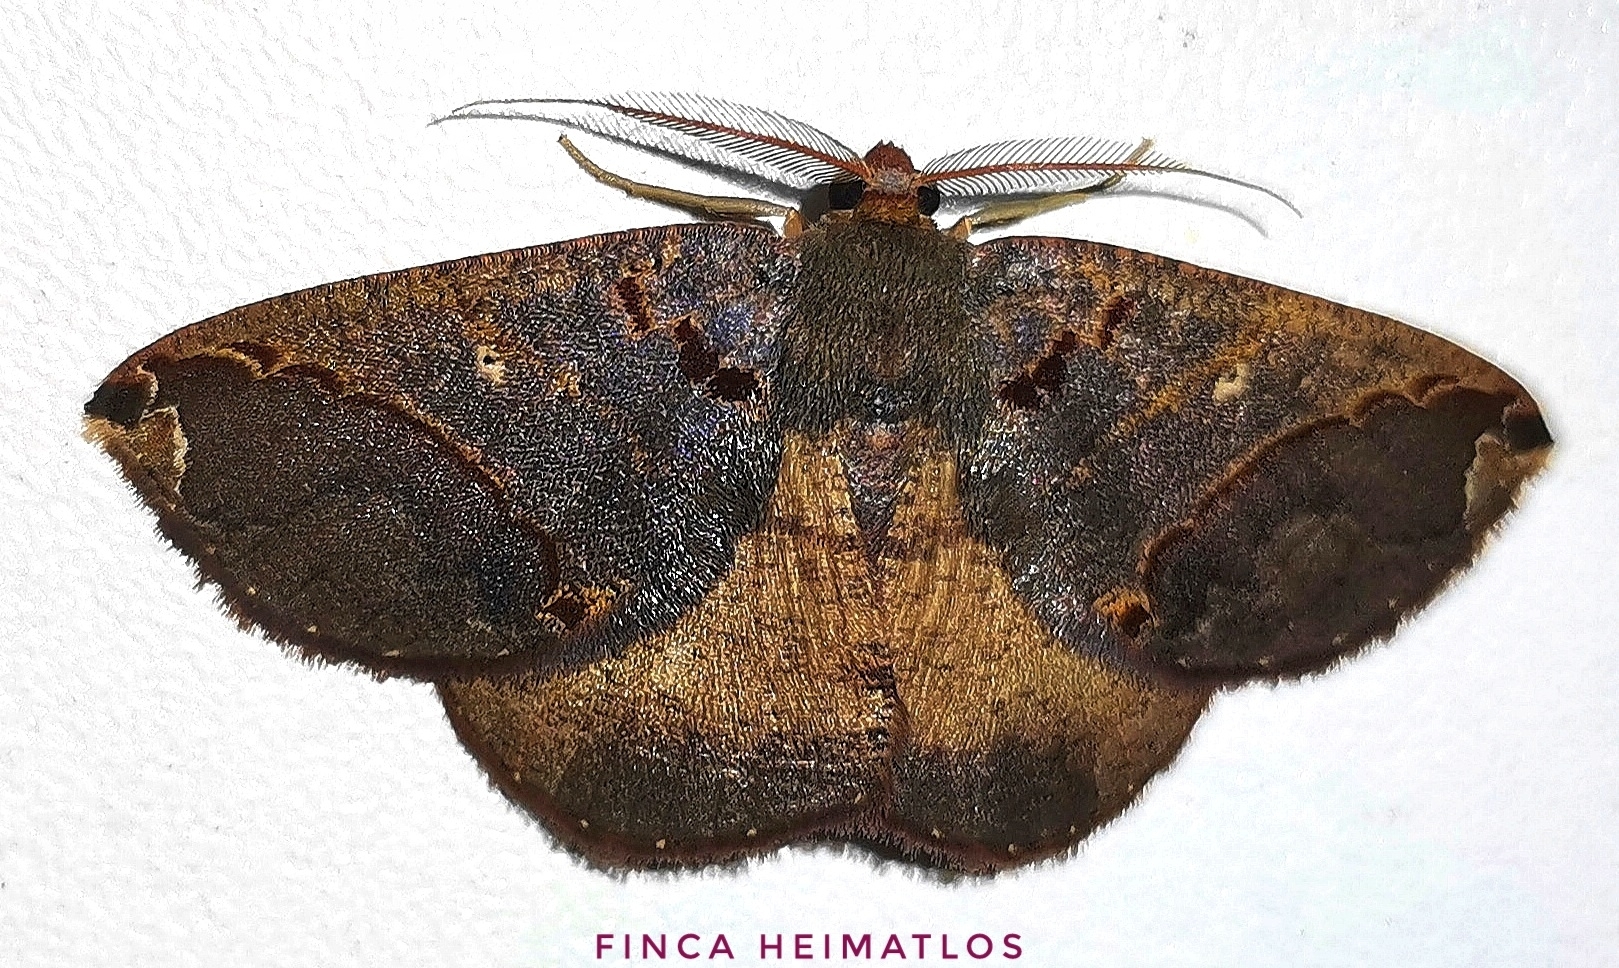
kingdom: Animalia
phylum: Arthropoda
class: Insecta
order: Lepidoptera
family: Geometridae
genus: Perissopteryx
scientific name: Perissopteryx commendata
